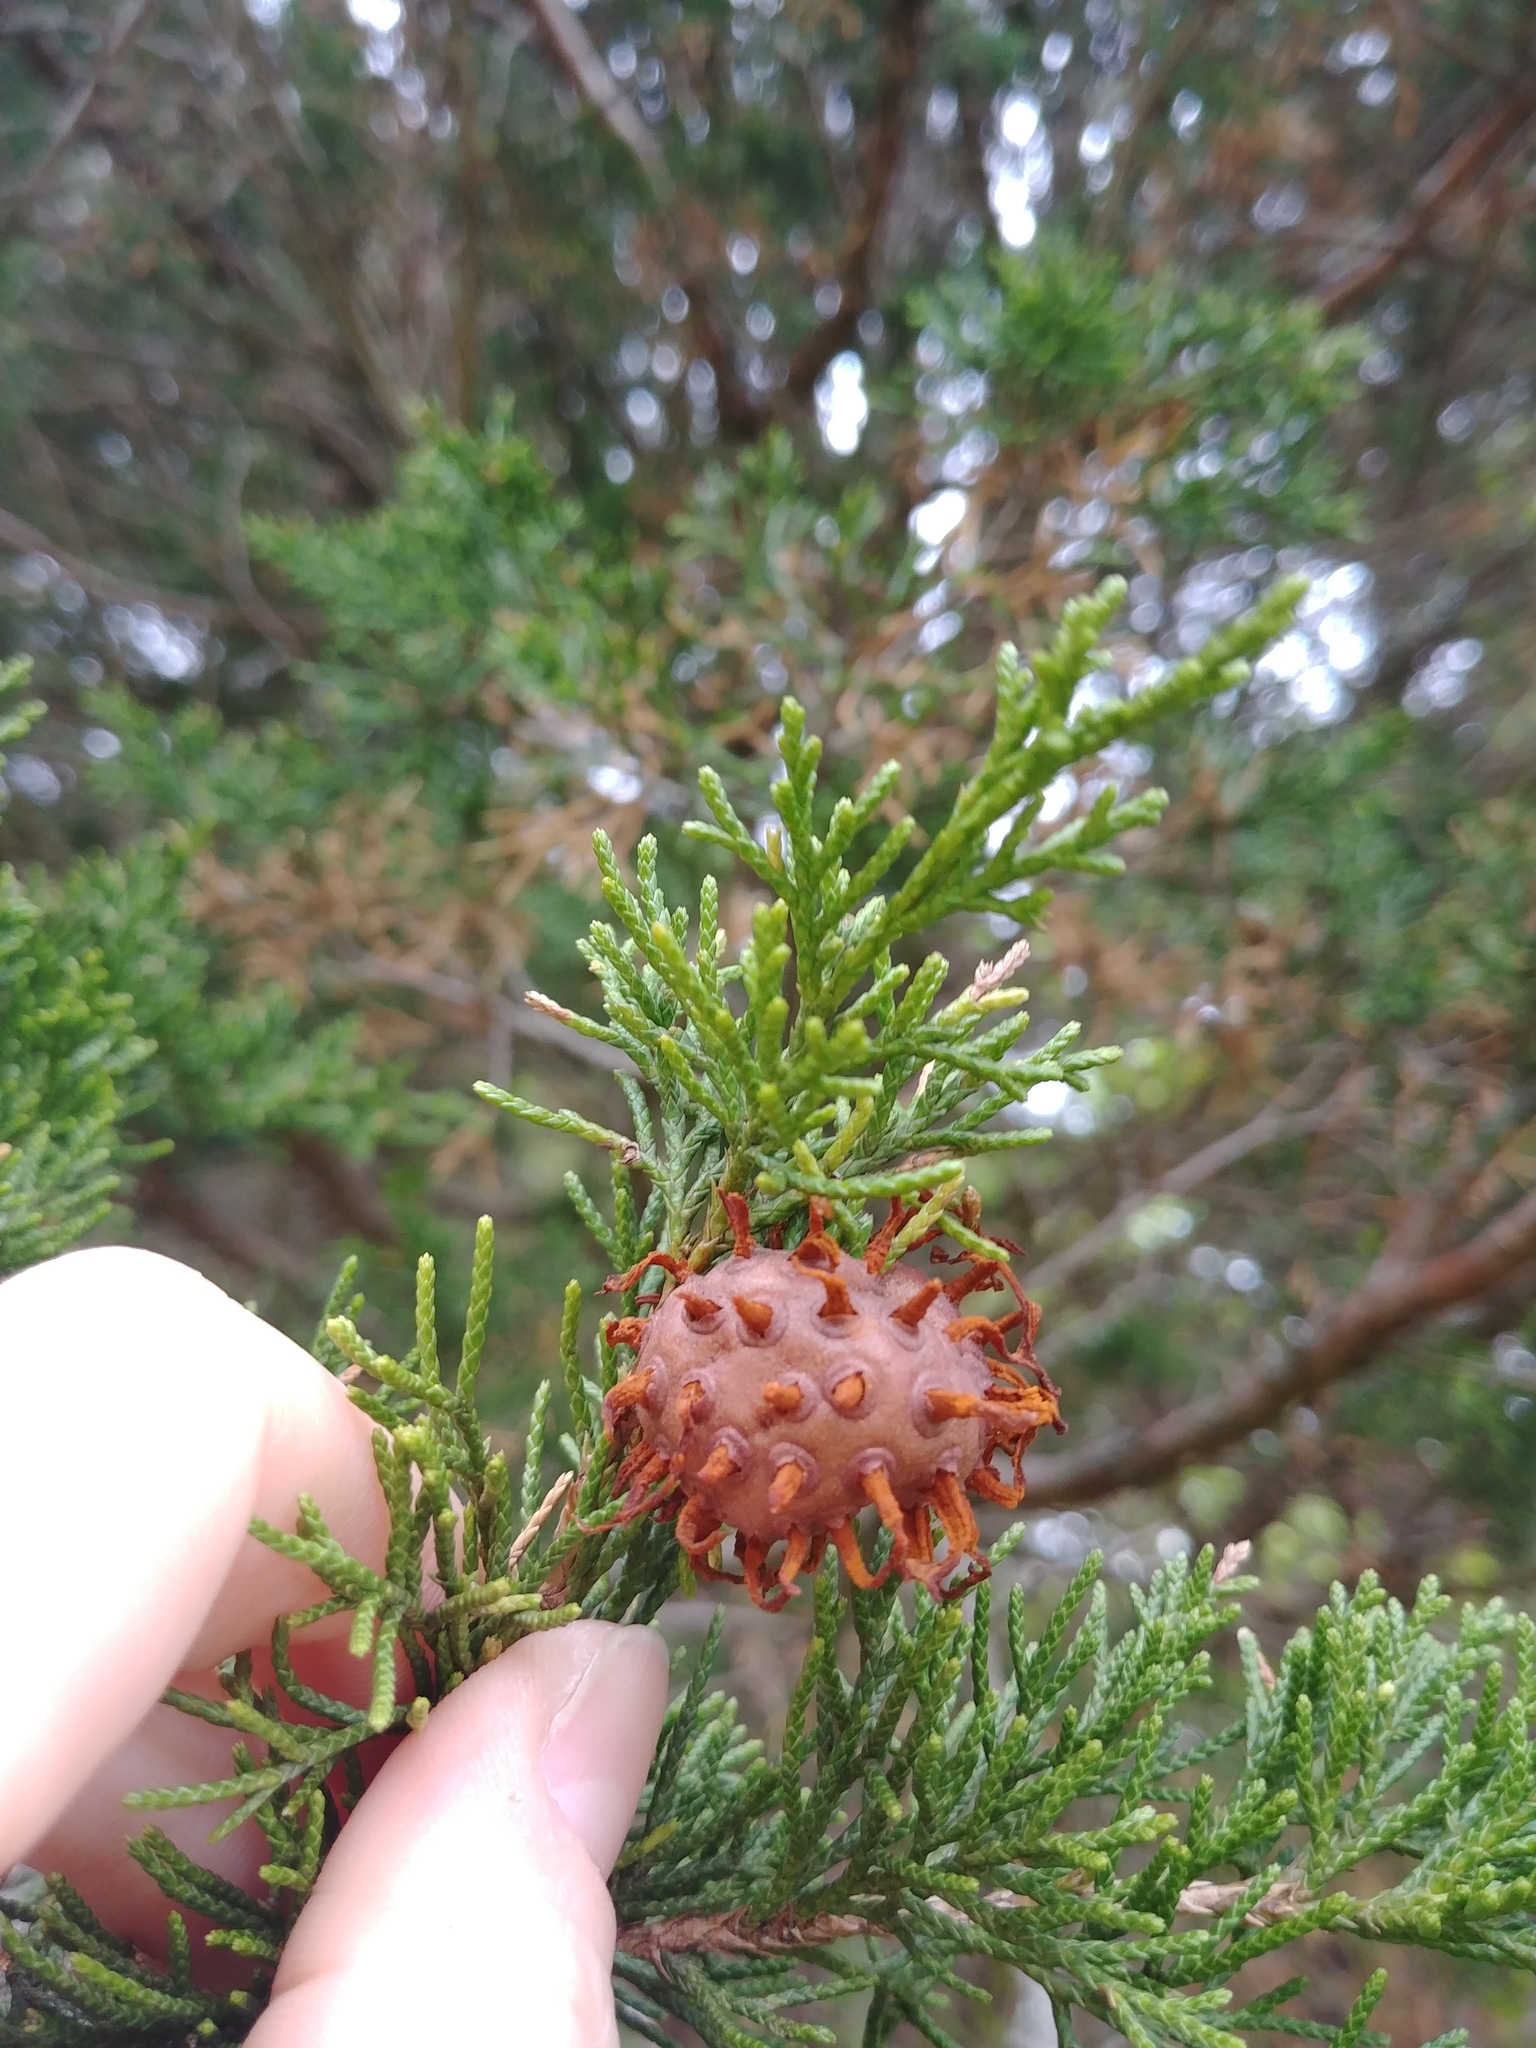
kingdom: Fungi
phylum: Basidiomycota
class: Pucciniomycetes
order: Pucciniales
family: Gymnosporangiaceae
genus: Gymnosporangium
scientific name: Gymnosporangium juniperi-virginianae
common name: Juniper-apple rust
